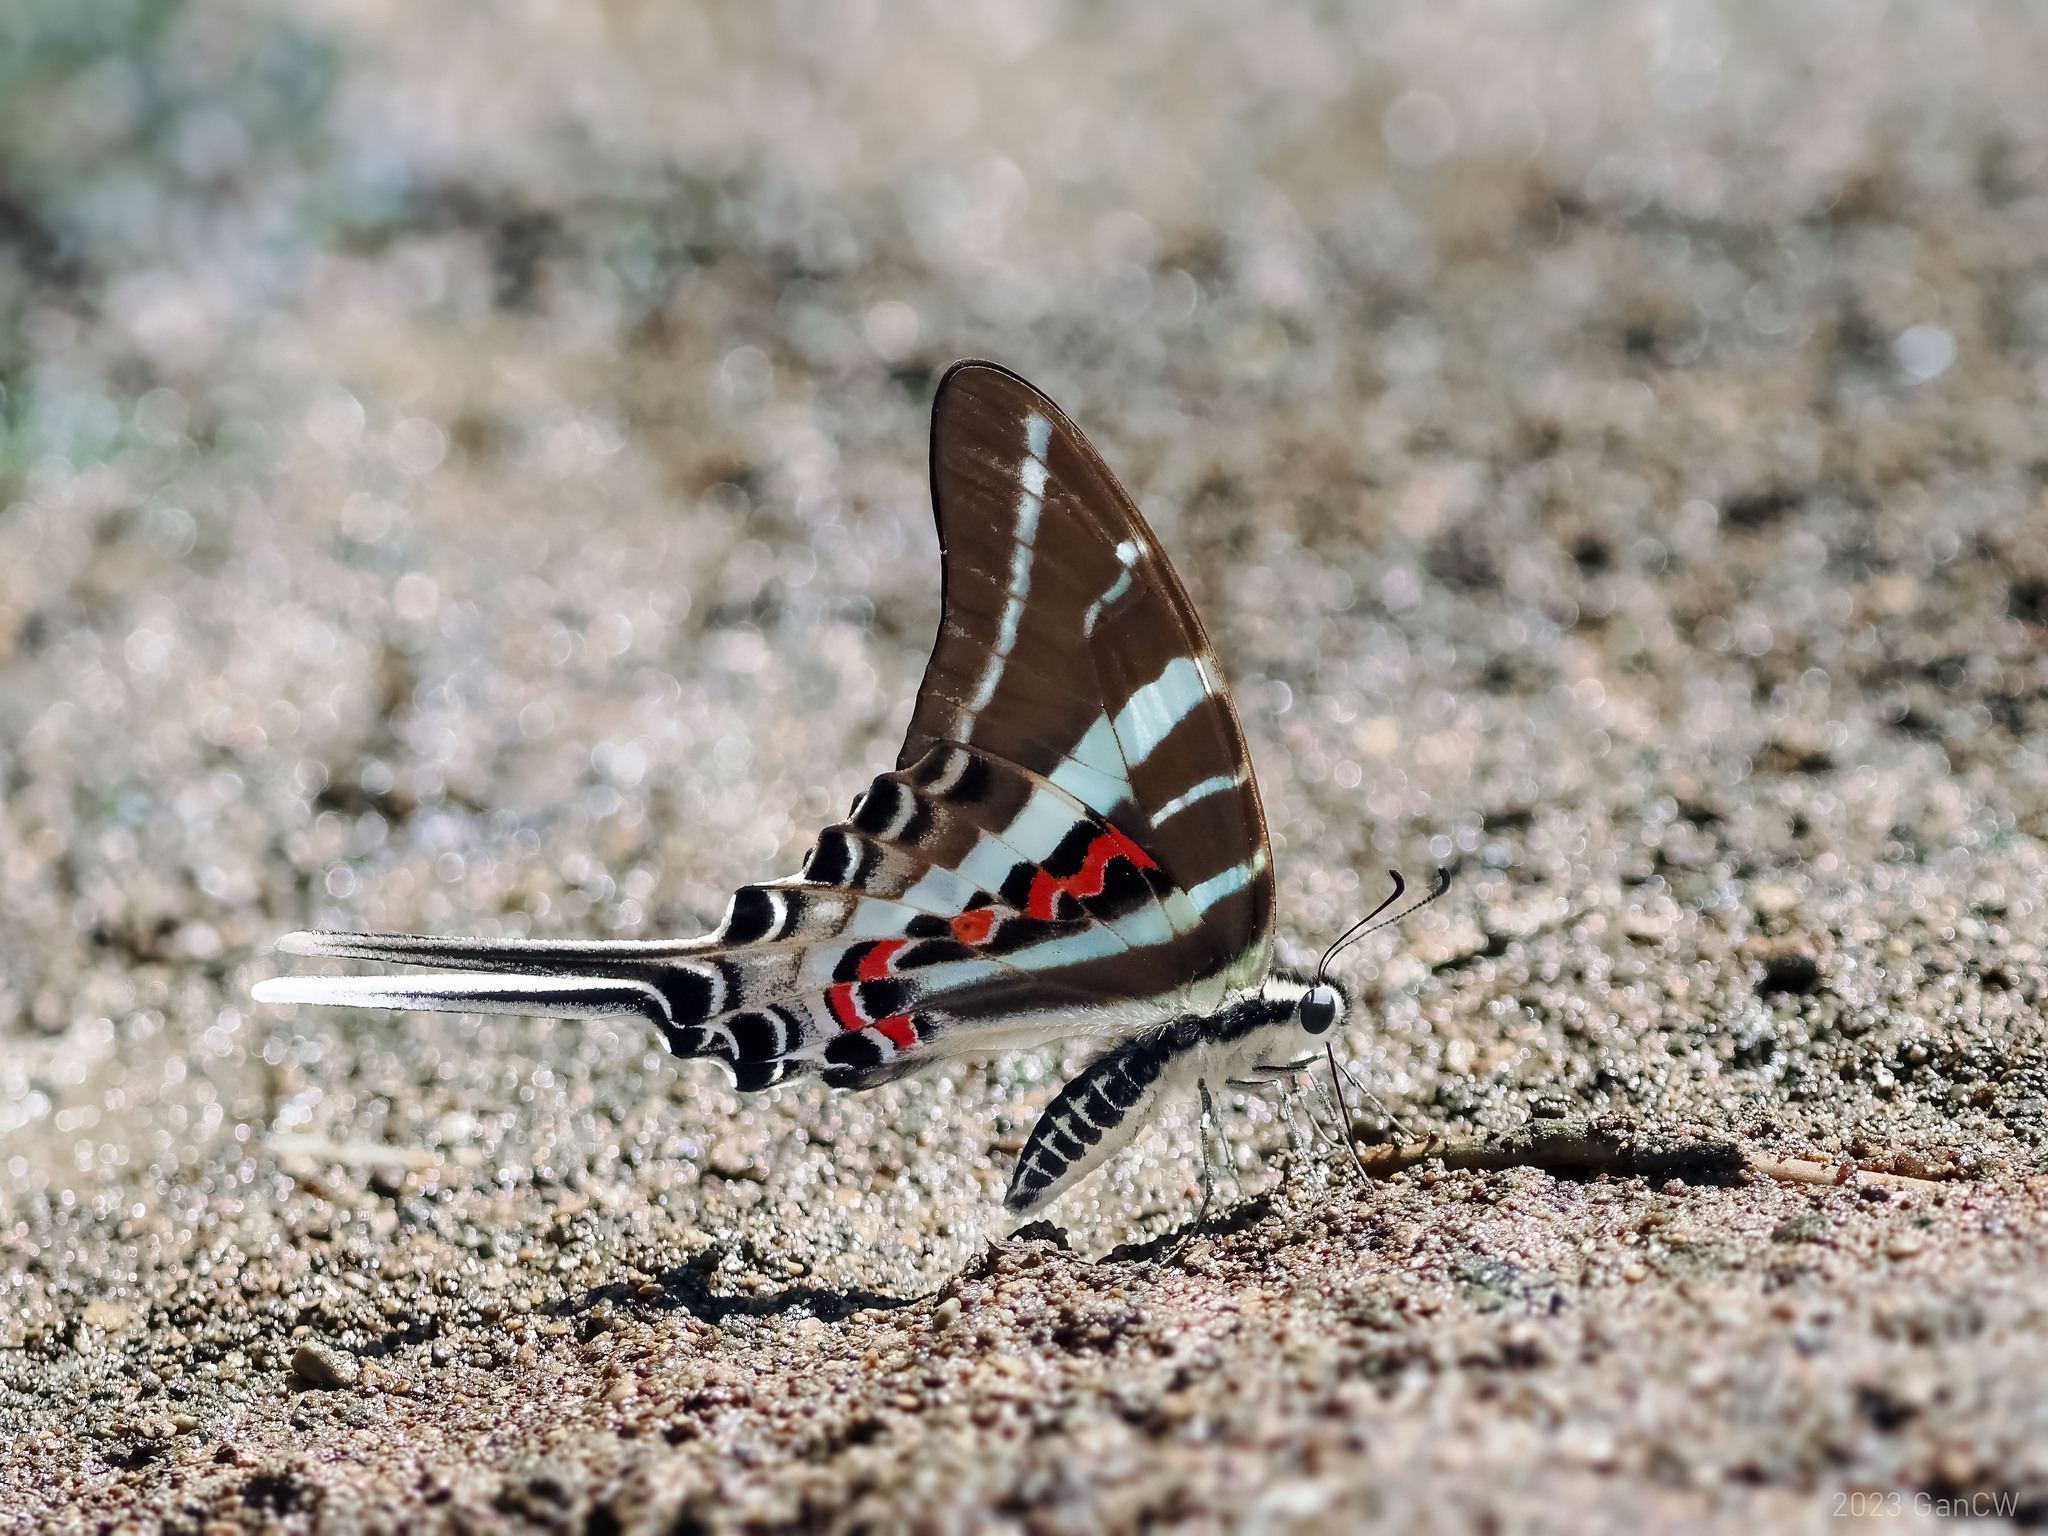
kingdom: Animalia
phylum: Arthropoda
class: Insecta
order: Lepidoptera
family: Papilionidae
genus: Graphium
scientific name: Graphium rhesus
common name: Monkey swordtail
